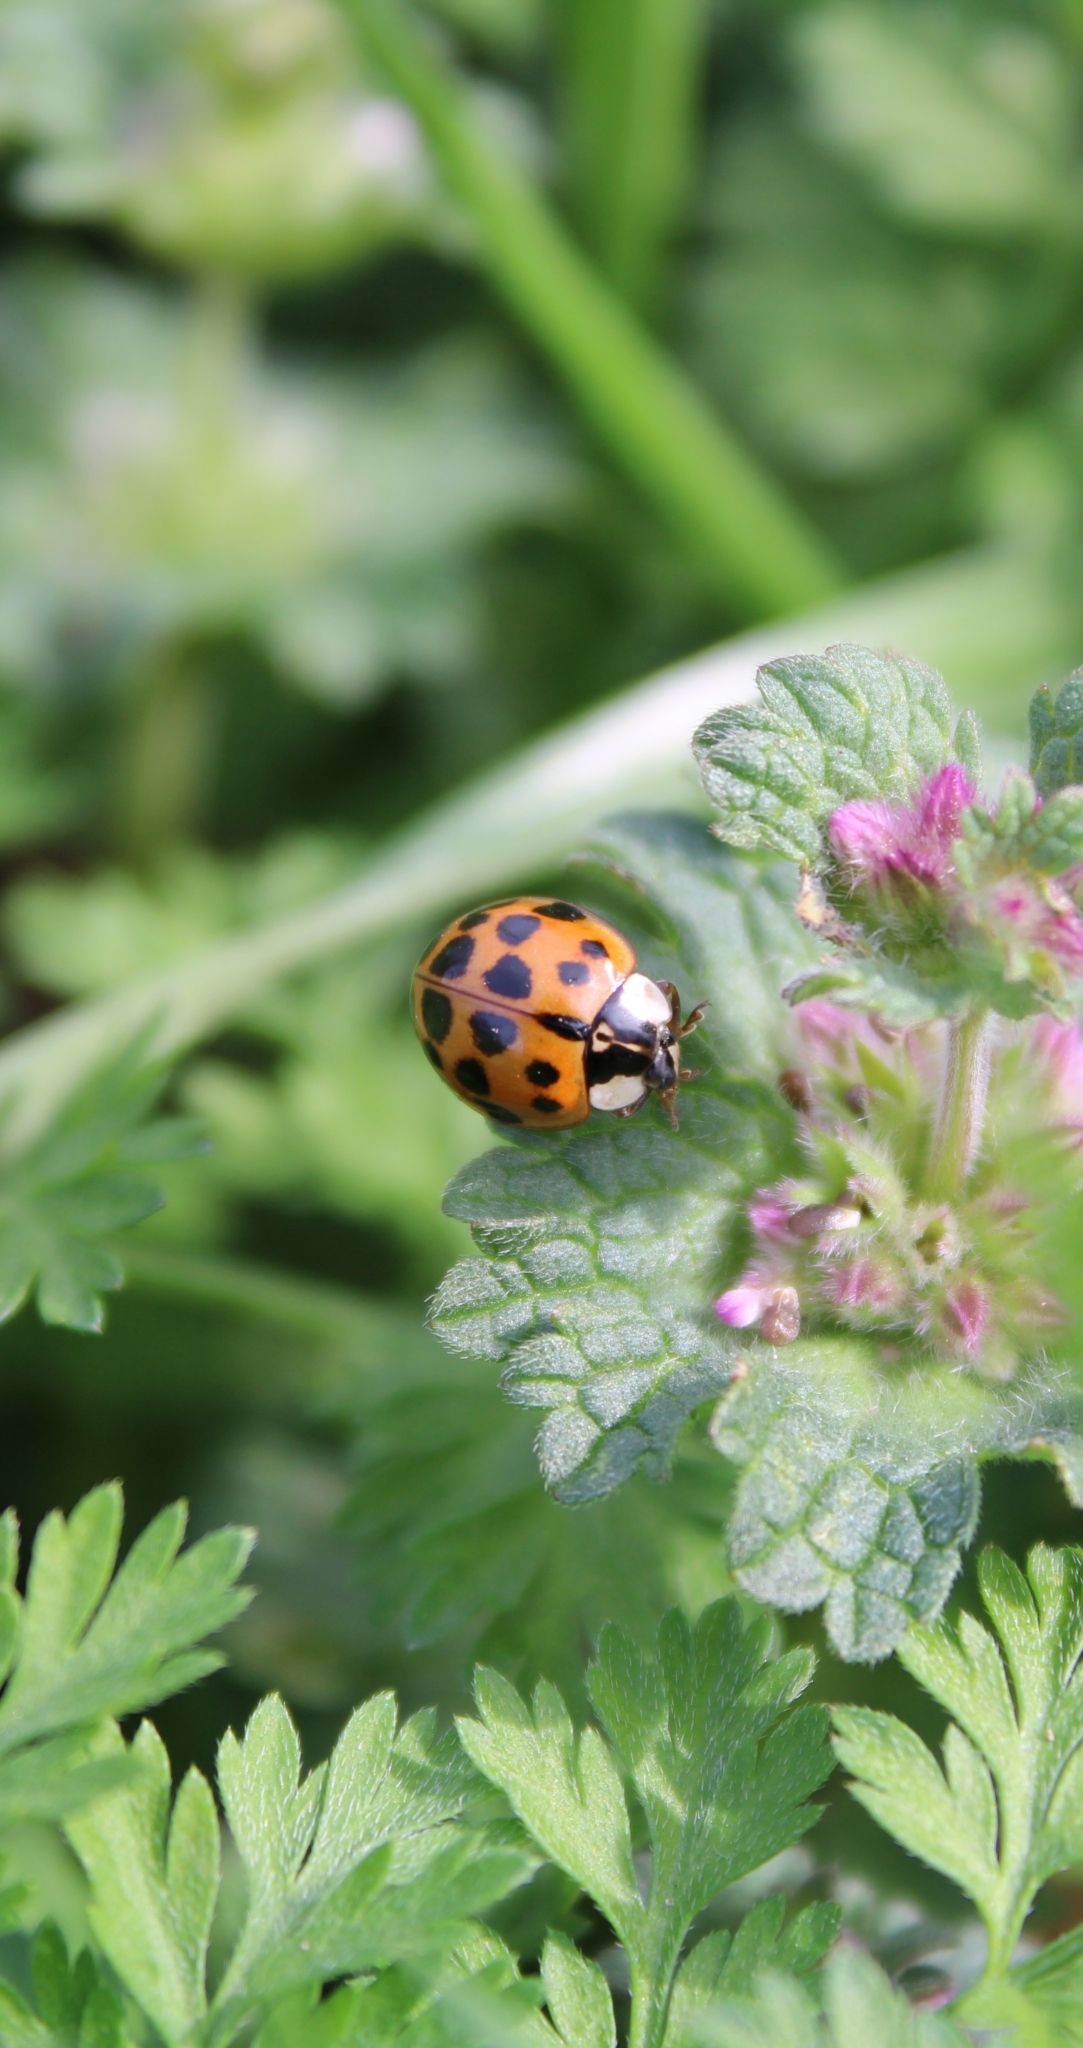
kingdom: Animalia
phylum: Arthropoda
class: Insecta
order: Coleoptera
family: Coccinellidae
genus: Harmonia
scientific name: Harmonia axyridis
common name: Harlequin ladybird
